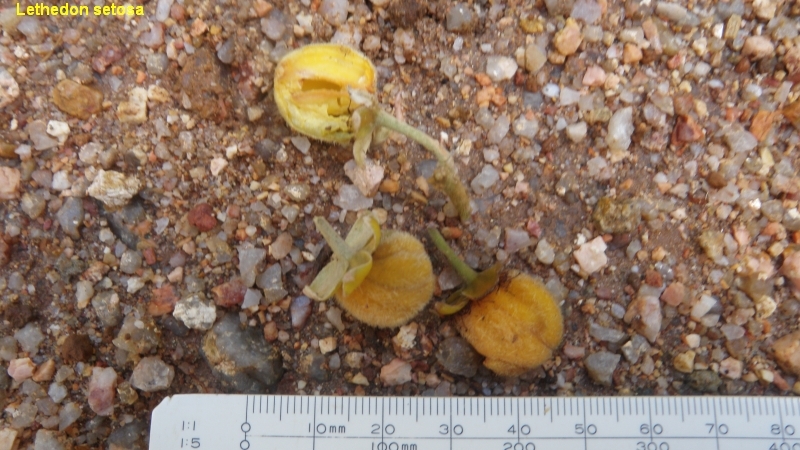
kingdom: Plantae
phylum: Tracheophyta
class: Magnoliopsida
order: Malvales
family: Thymelaeaceae
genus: Lethedon
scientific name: Lethedon setosa
